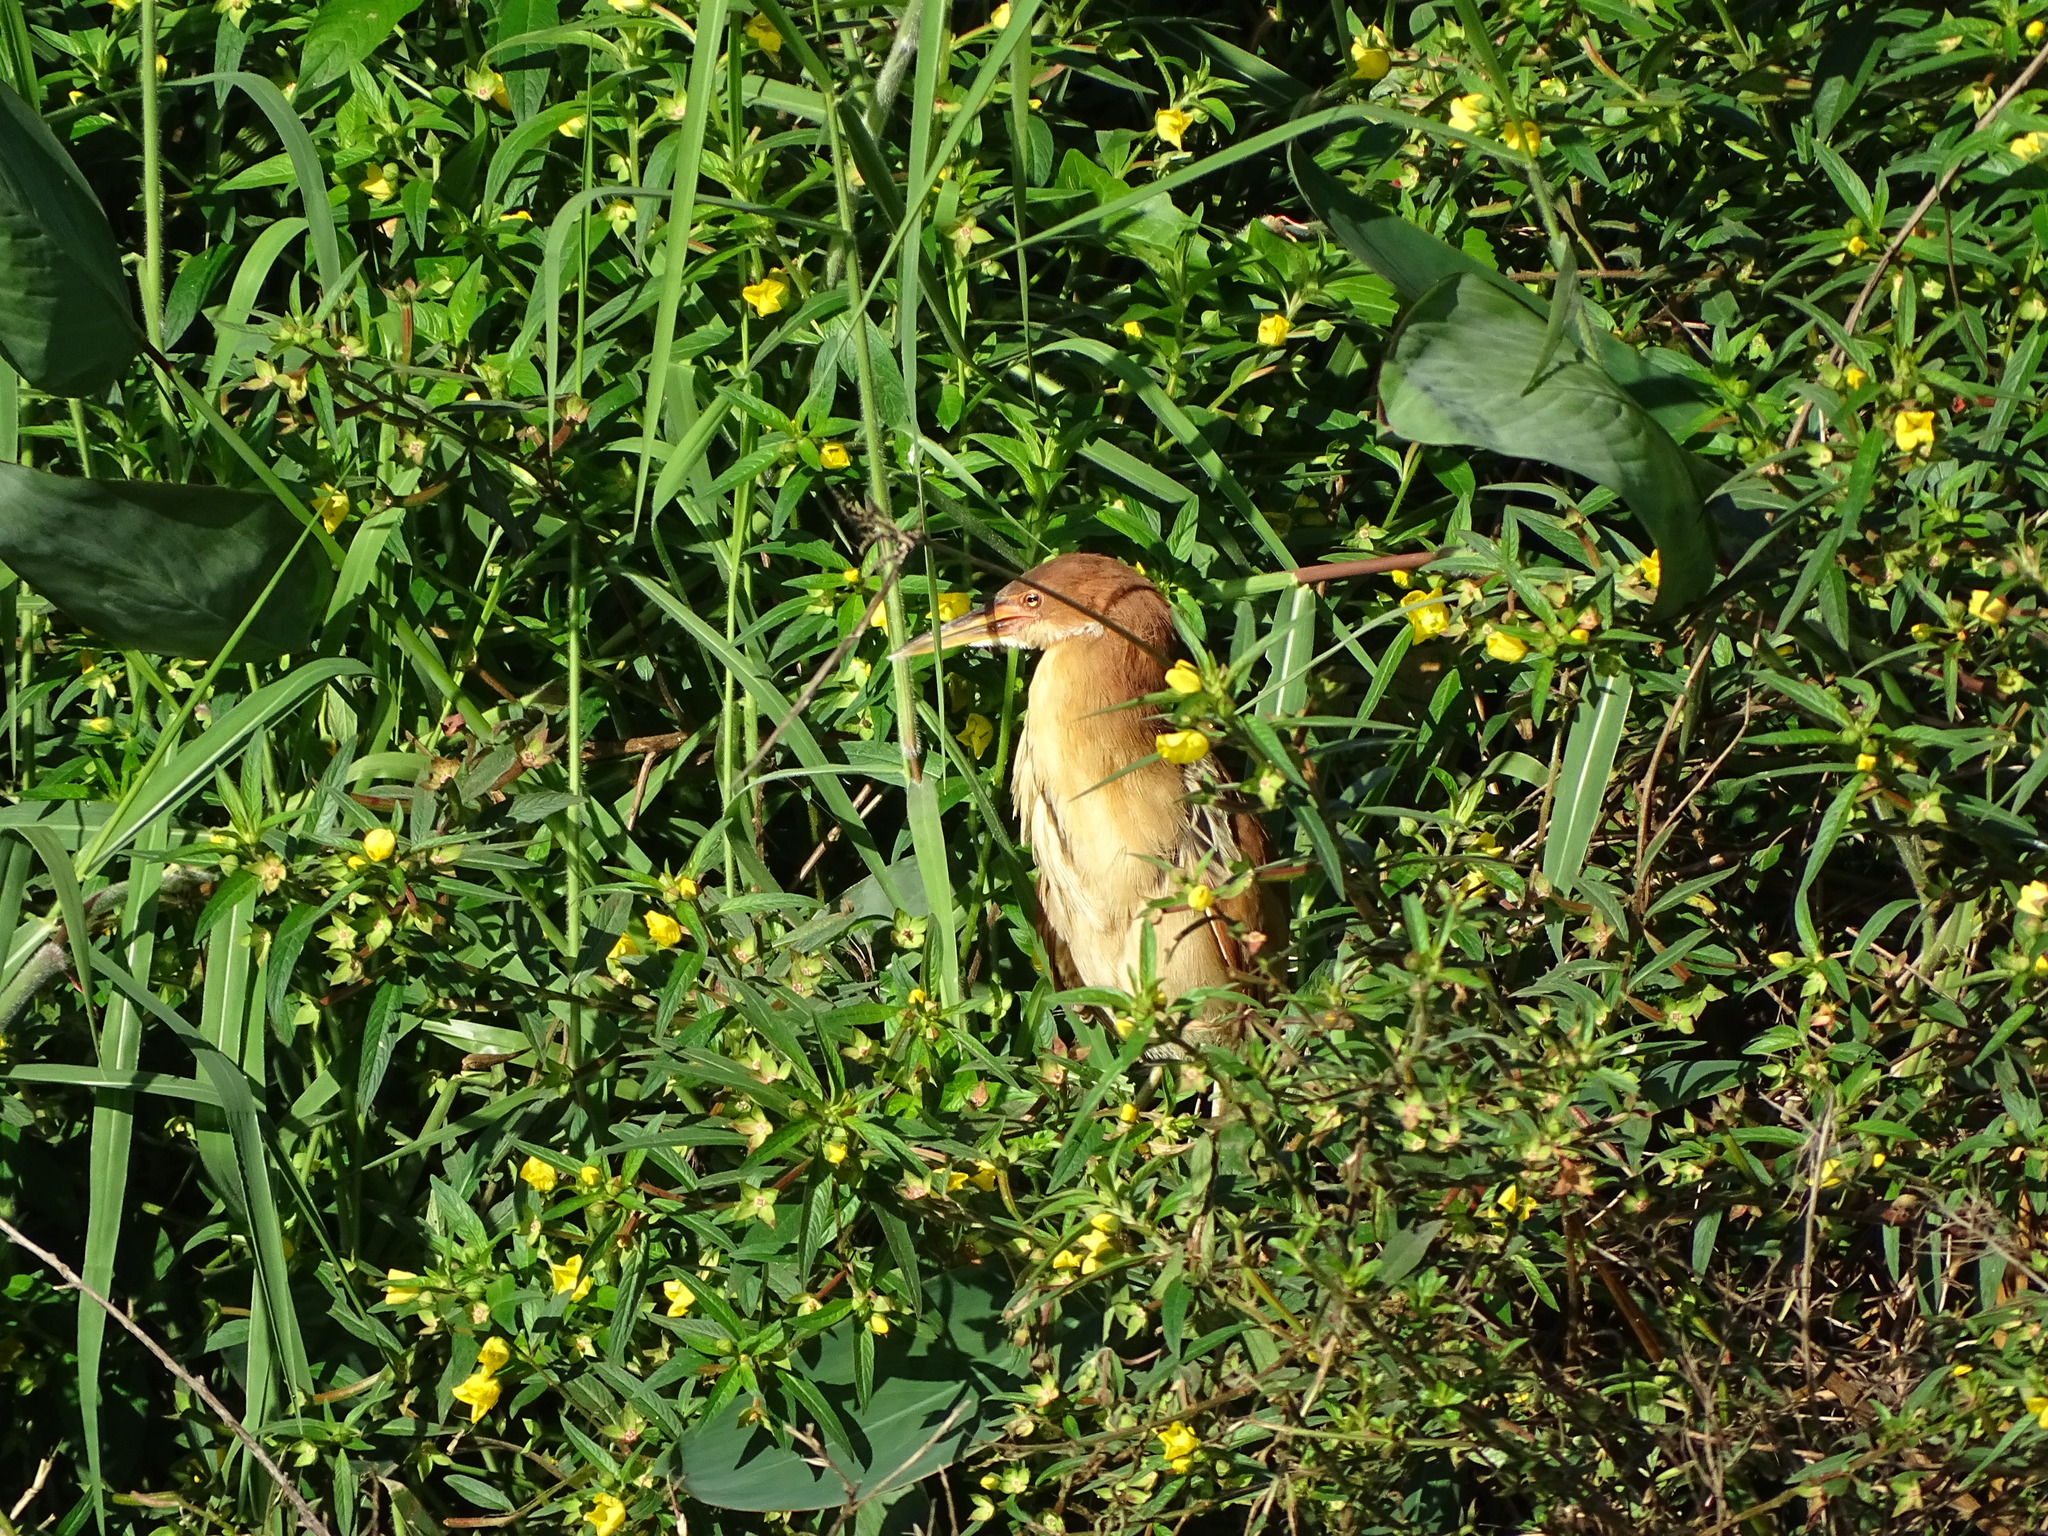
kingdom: Animalia
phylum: Chordata
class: Aves
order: Pelecaniformes
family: Ardeidae
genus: Ixobrychus
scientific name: Ixobrychus cinnamomeus
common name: Cinnamon bittern
